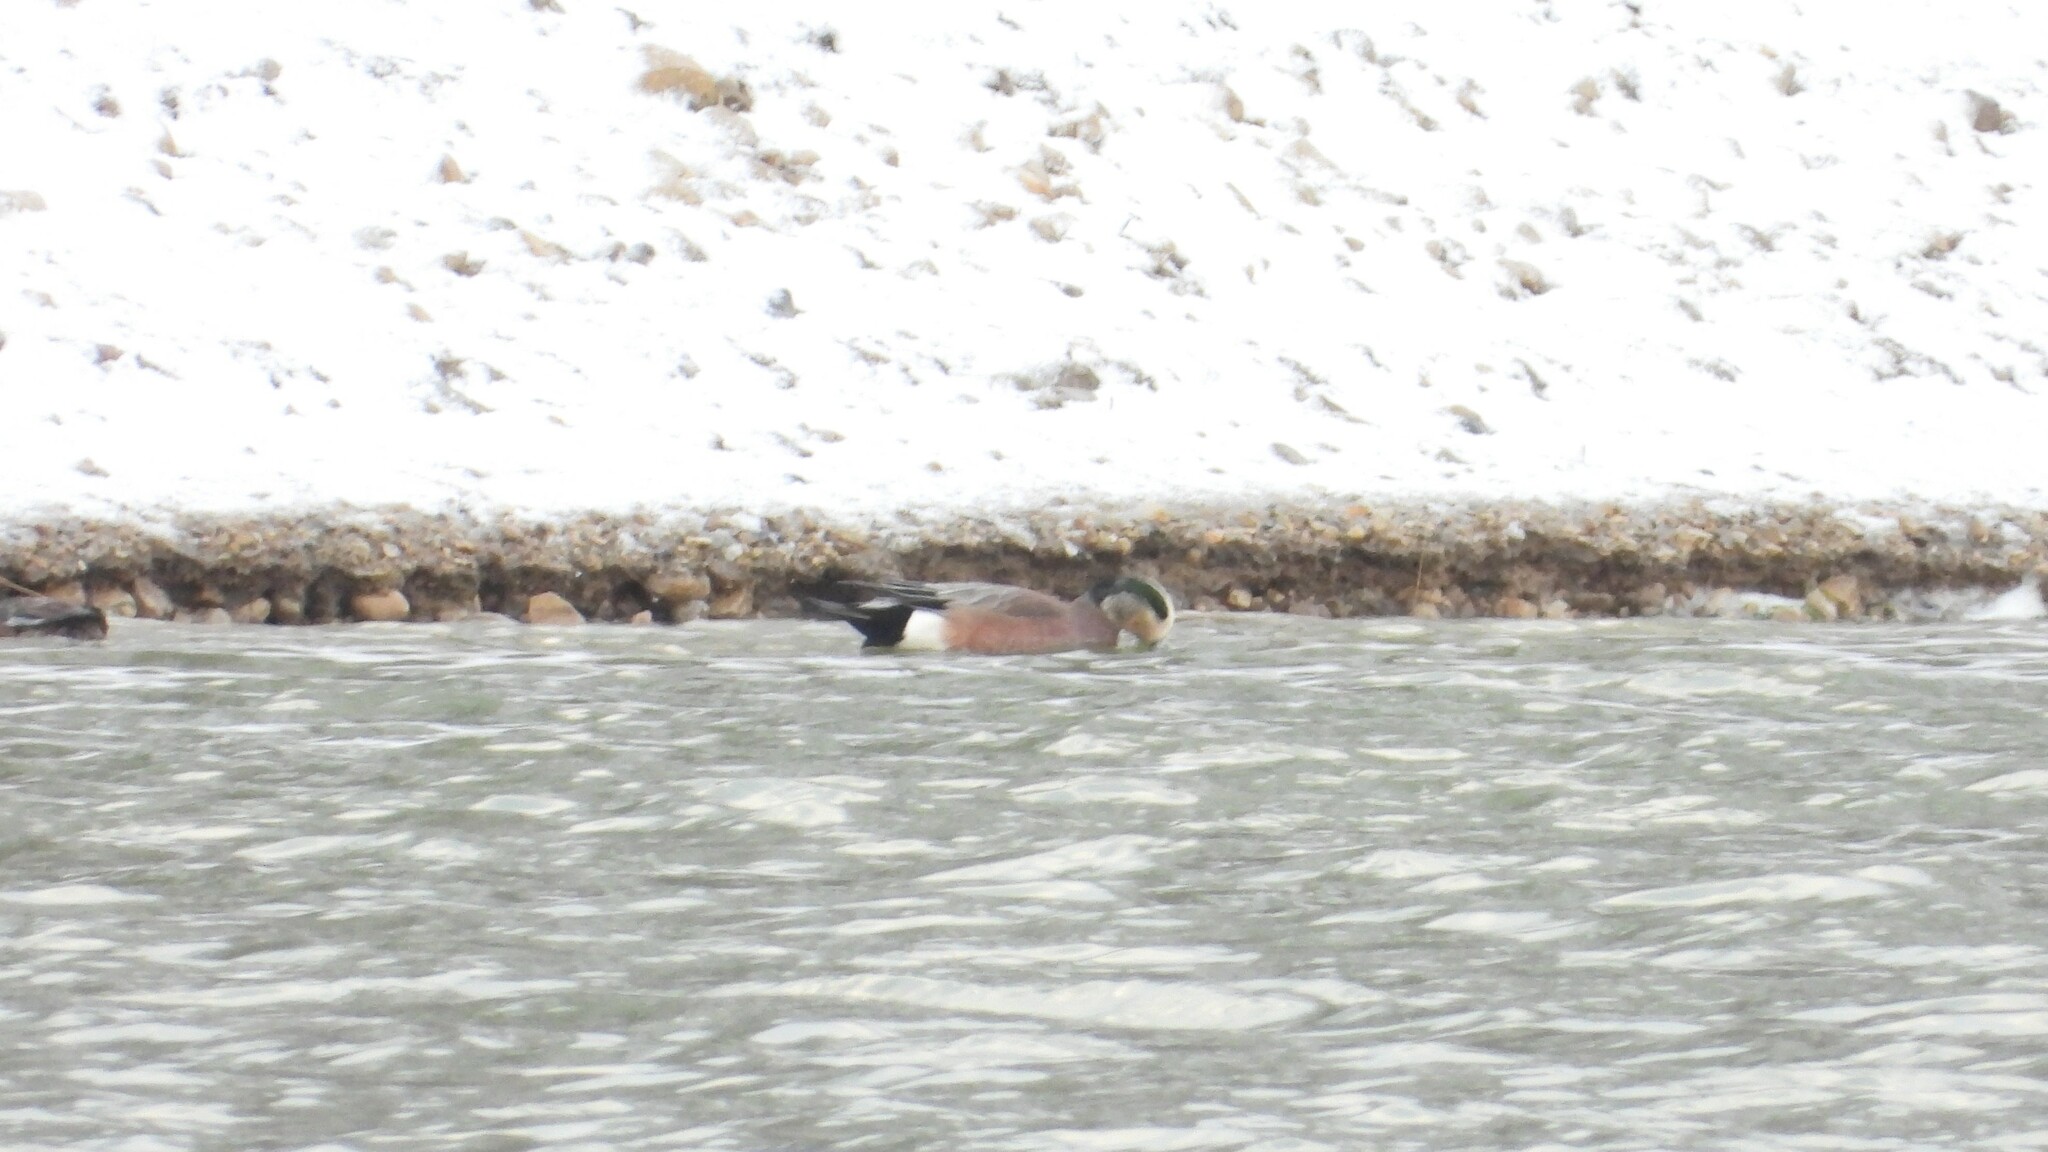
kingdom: Animalia
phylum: Chordata
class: Aves
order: Anseriformes
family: Anatidae
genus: Mareca
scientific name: Mareca americana
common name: American wigeon
